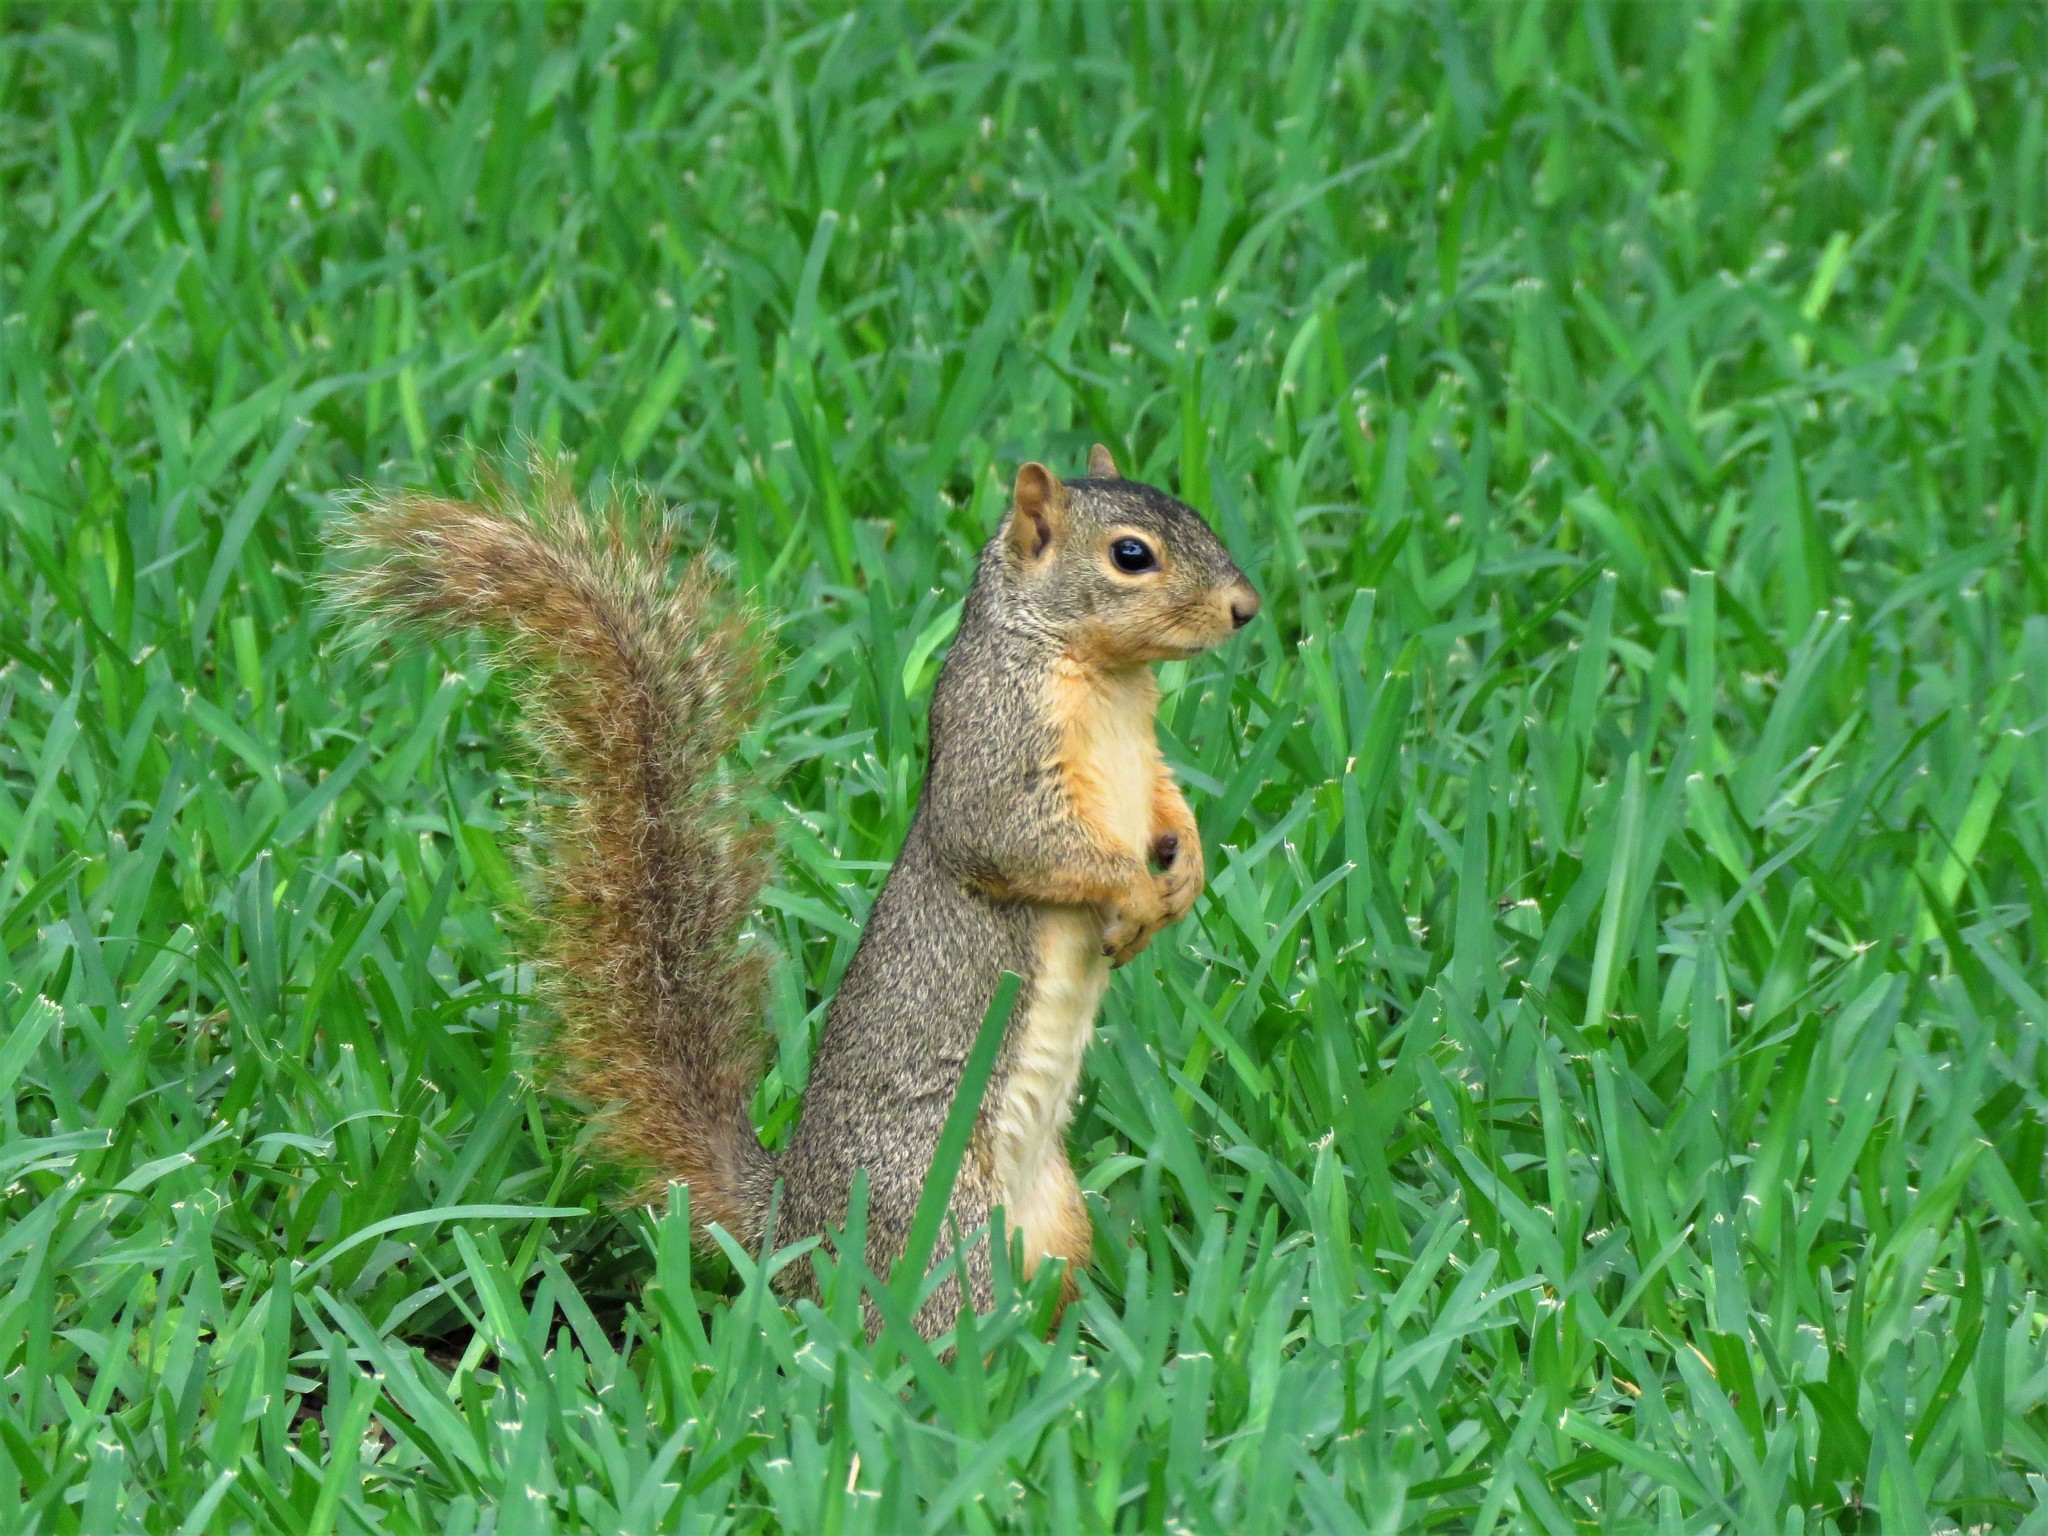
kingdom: Animalia
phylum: Chordata
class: Mammalia
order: Rodentia
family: Sciuridae
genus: Sciurus
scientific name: Sciurus niger
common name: Fox squirrel
